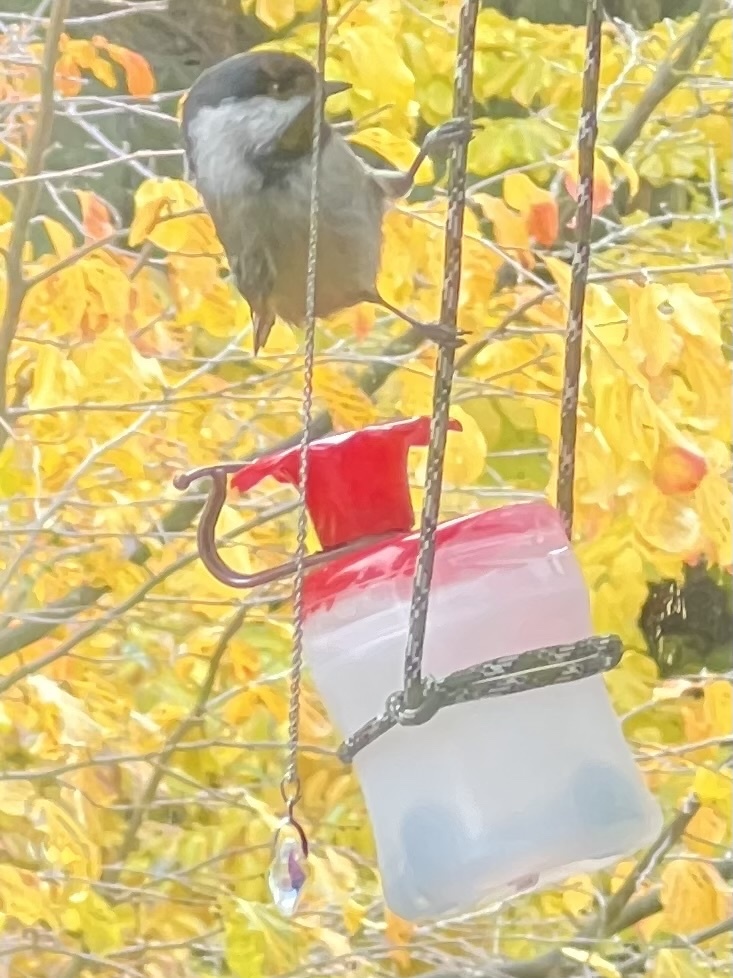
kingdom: Animalia
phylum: Chordata
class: Aves
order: Passeriformes
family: Paridae
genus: Poecile
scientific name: Poecile atricapillus
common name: Black-capped chickadee
